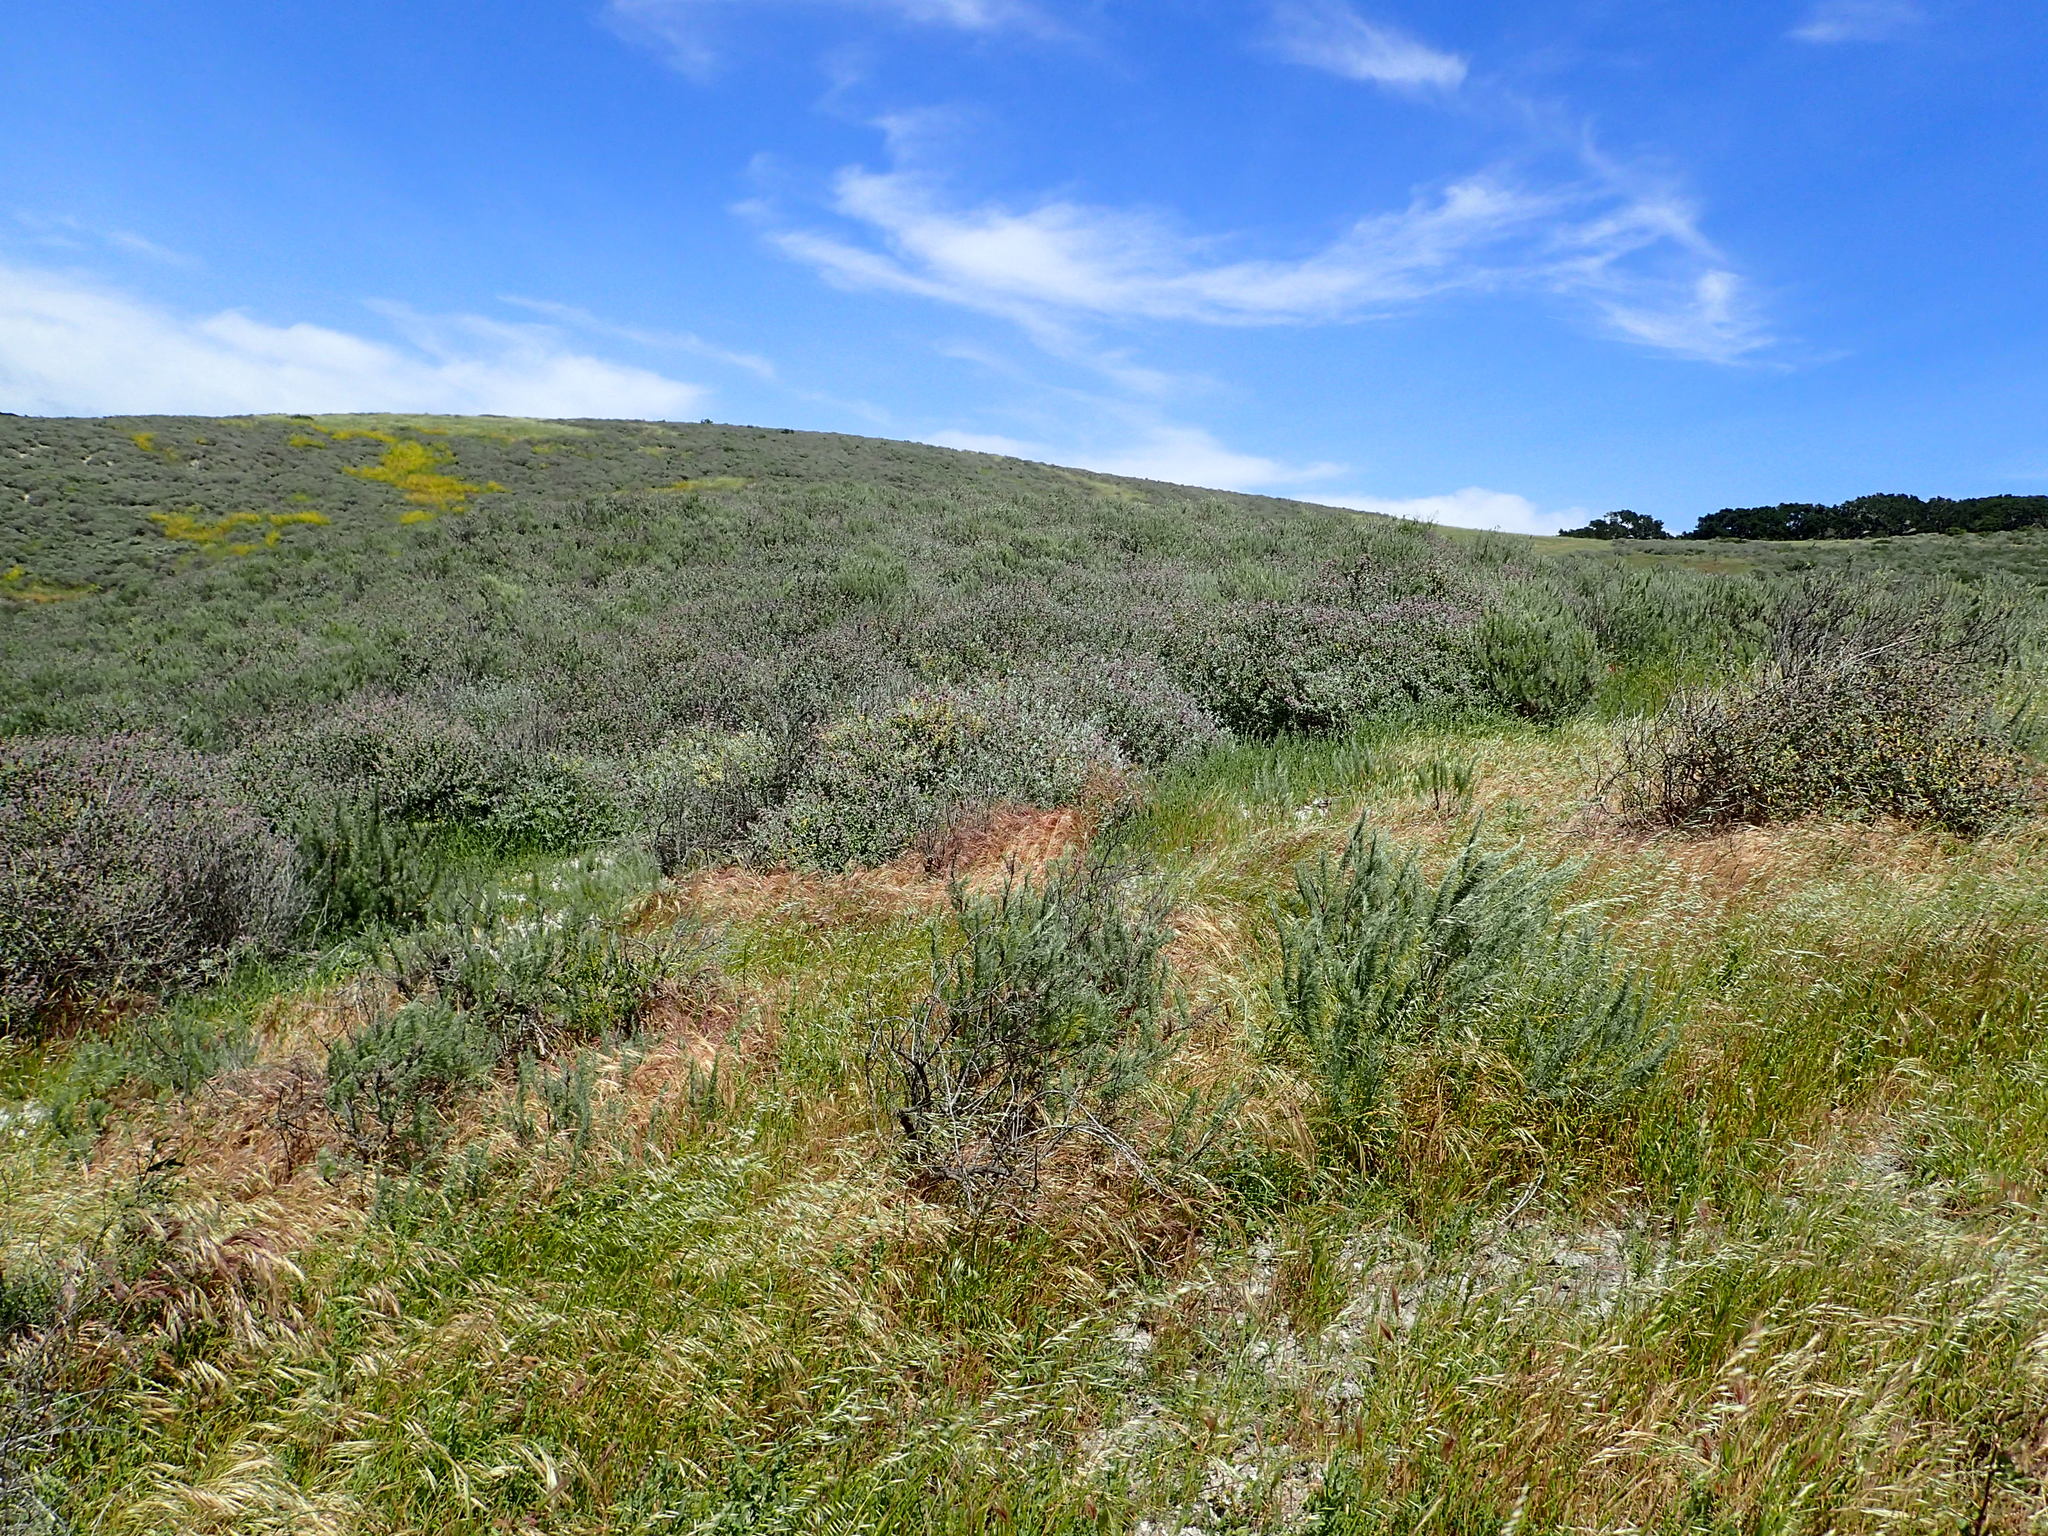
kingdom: Plantae
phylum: Tracheophyta
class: Magnoliopsida
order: Lamiales
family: Lamiaceae
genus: Salvia
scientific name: Salvia leucophylla
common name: Purple sage
